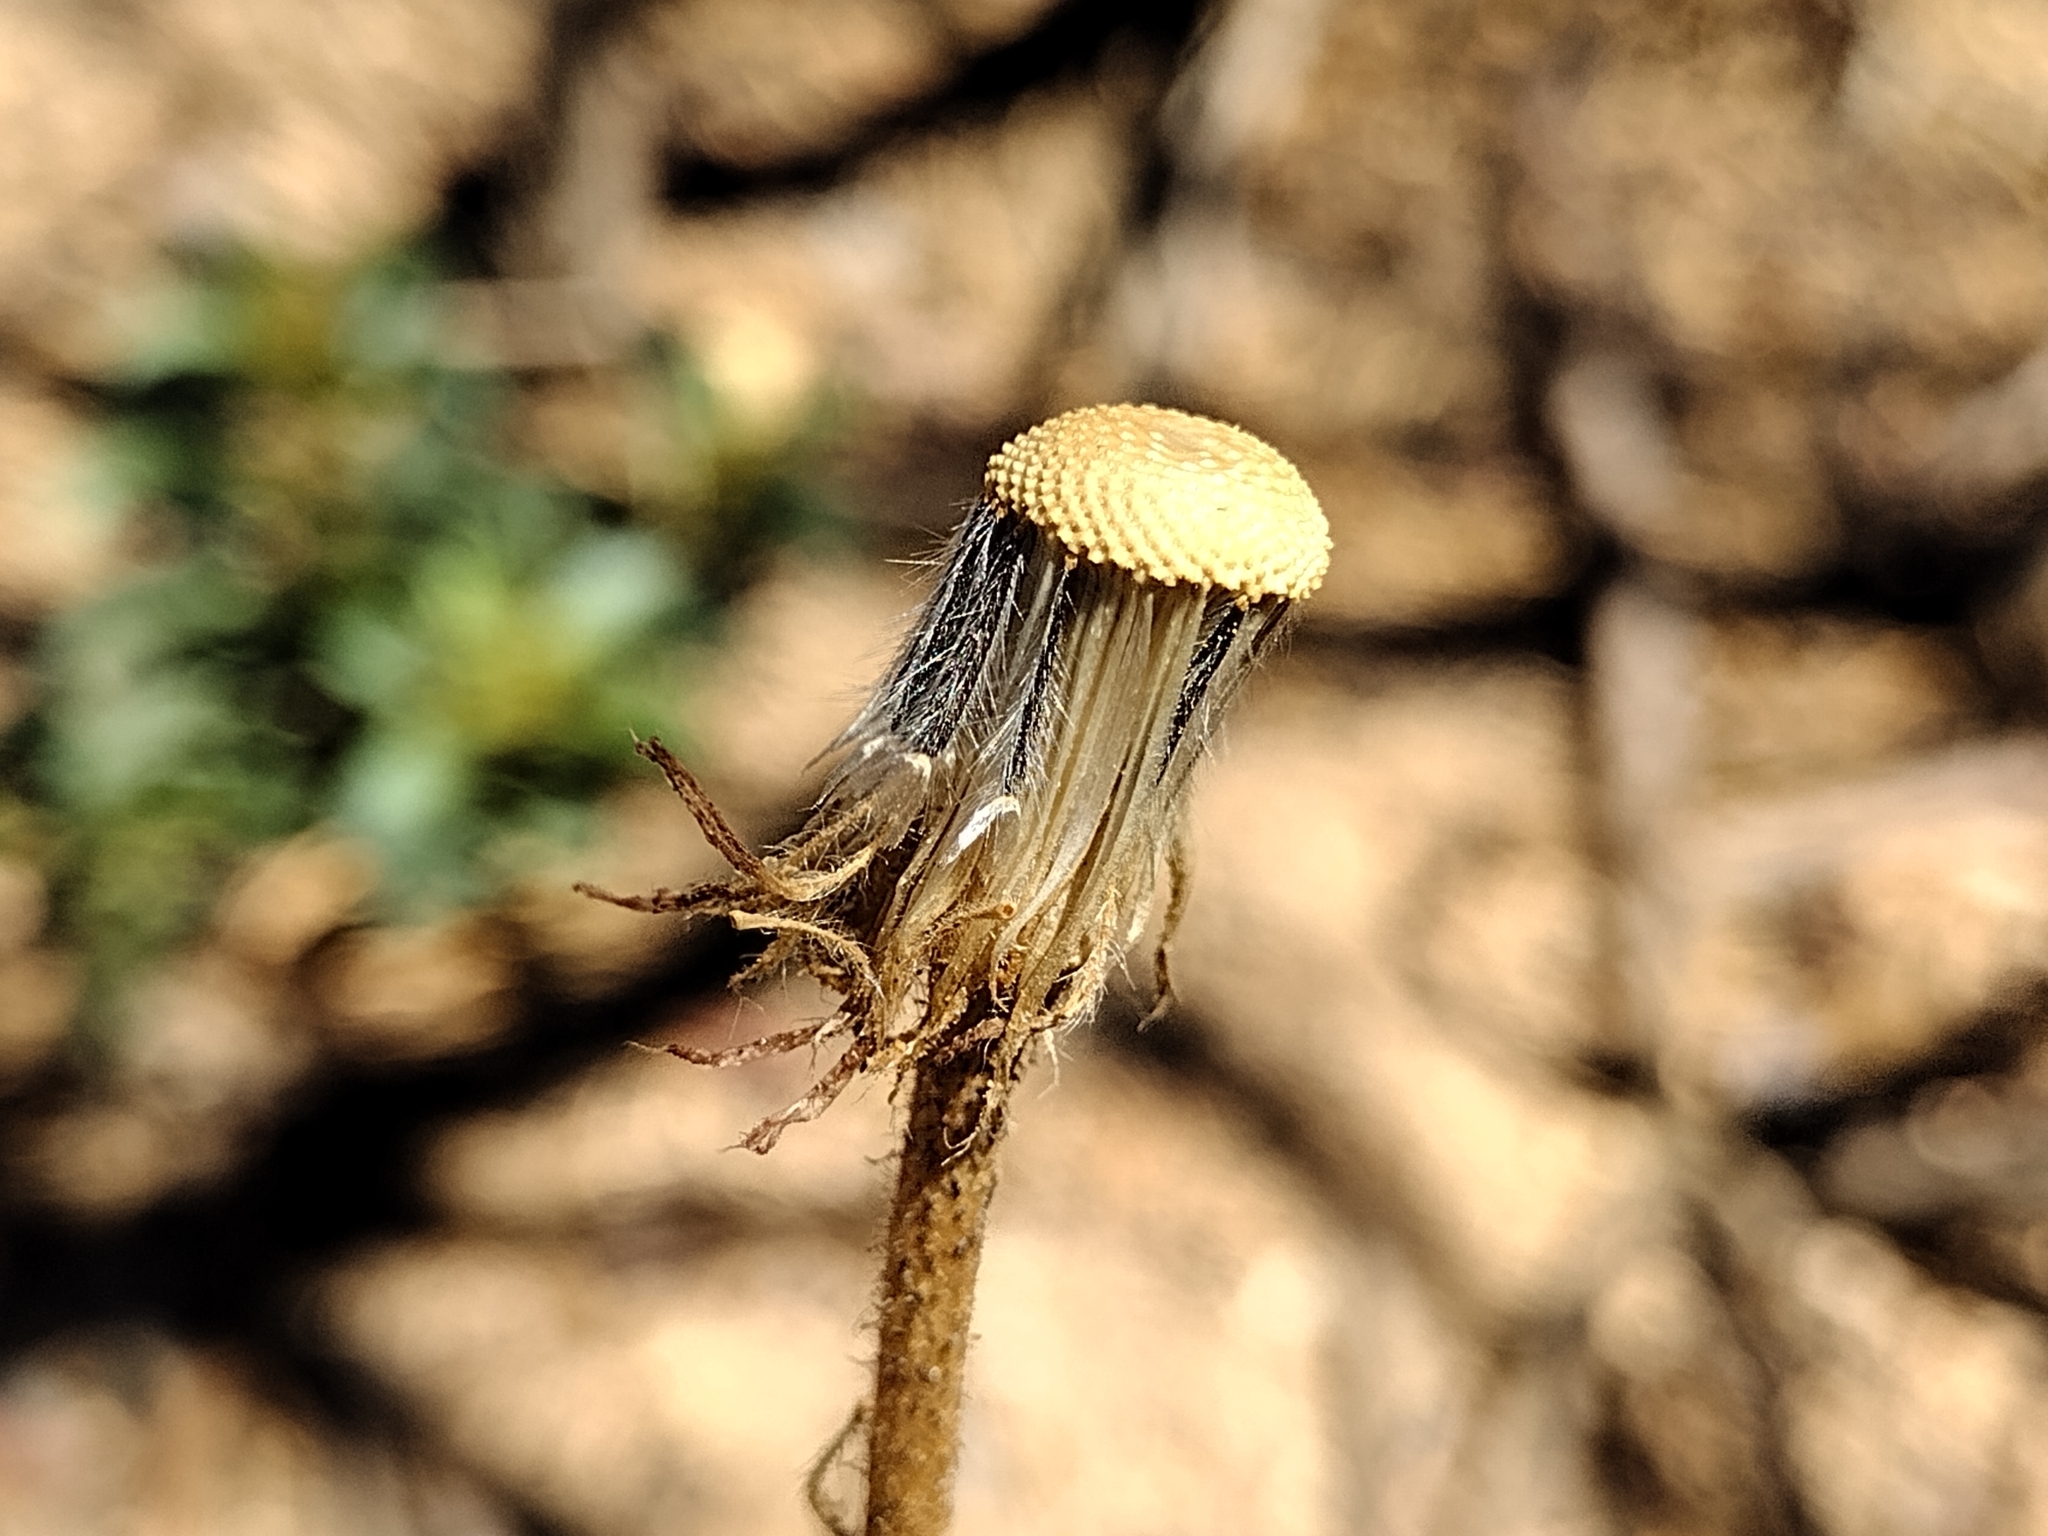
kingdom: Plantae
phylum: Tracheophyta
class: Magnoliopsida
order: Asterales
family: Asteraceae
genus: Hulsea
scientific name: Hulsea heterochroma
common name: Redray alpinegold
